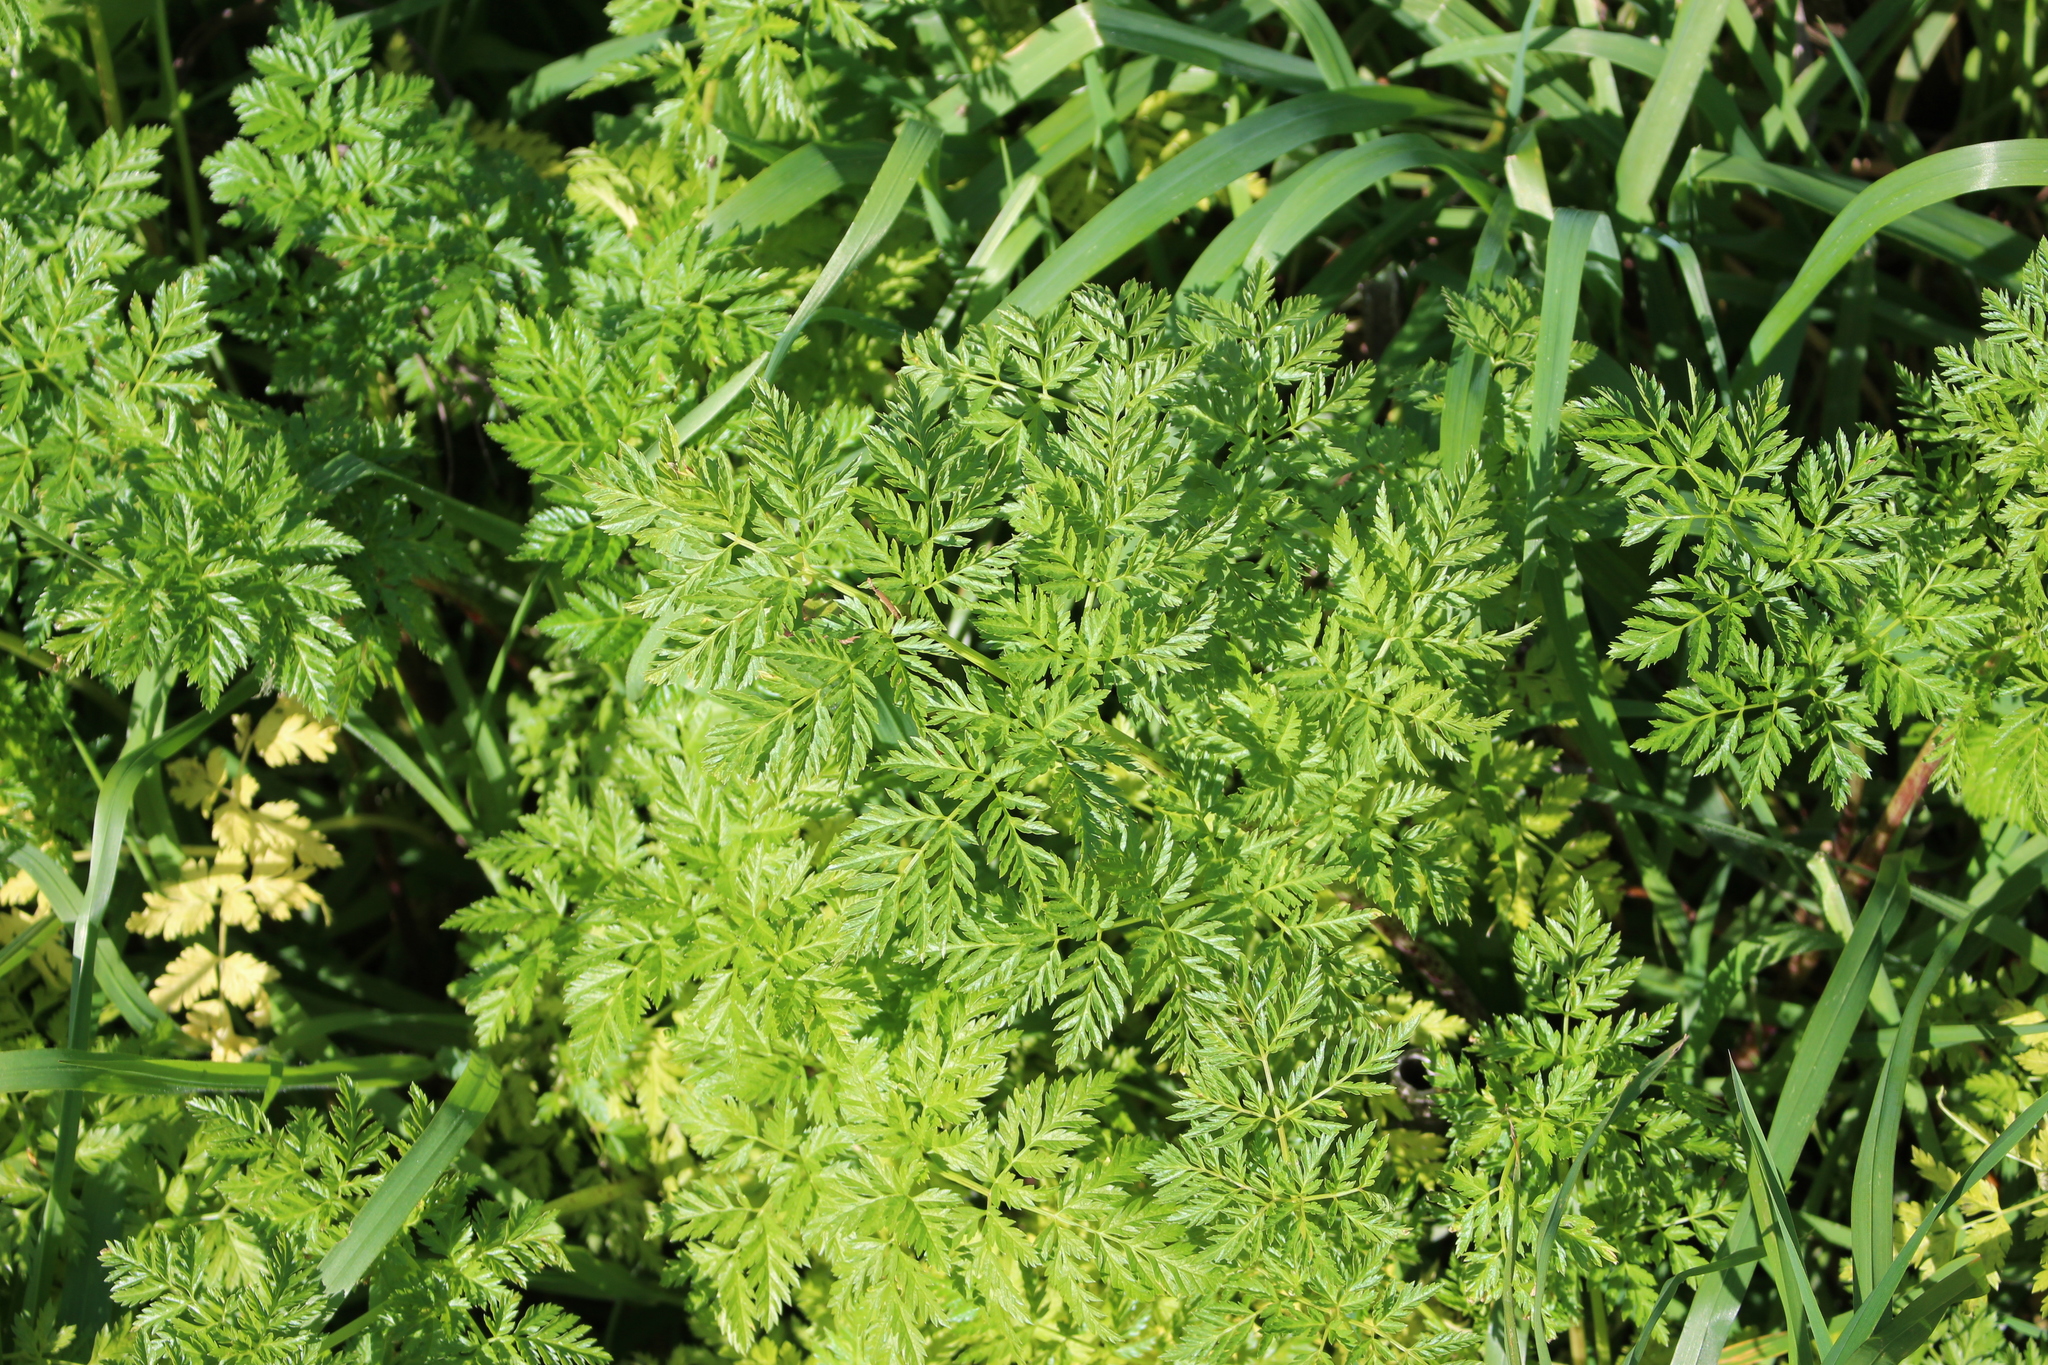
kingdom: Plantae
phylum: Tracheophyta
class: Magnoliopsida
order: Apiales
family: Apiaceae
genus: Conium
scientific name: Conium maculatum
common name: Hemlock
